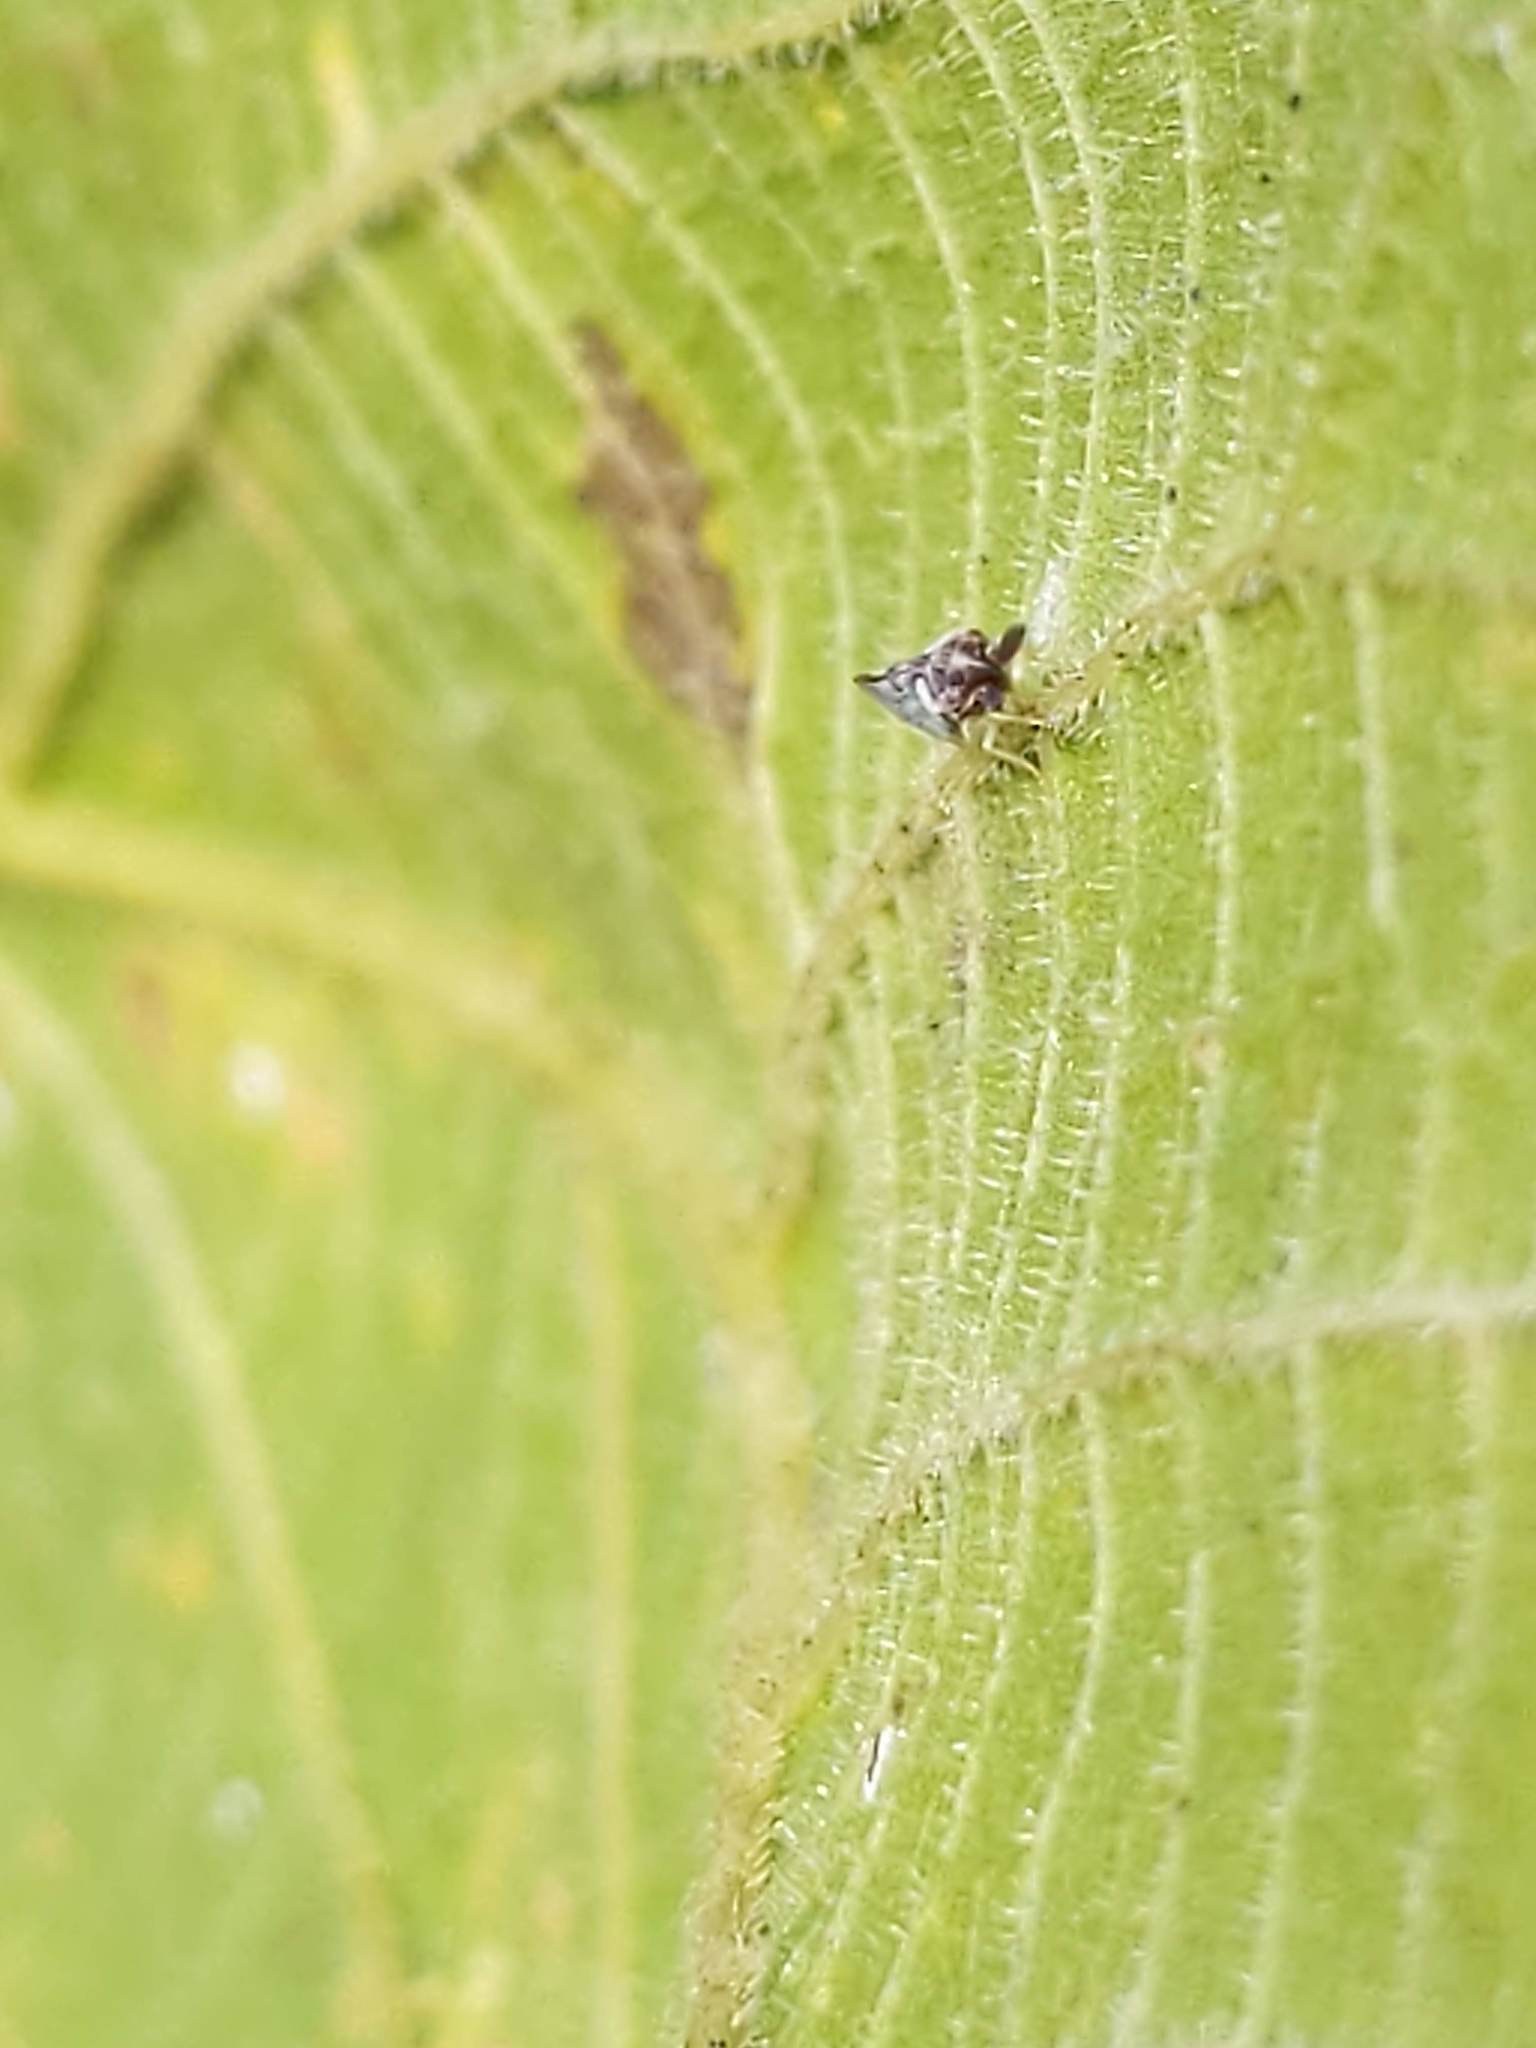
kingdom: Animalia
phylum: Arthropoda
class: Insecta
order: Hemiptera
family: Derbidae
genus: Patara
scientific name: Patara vanduzei
